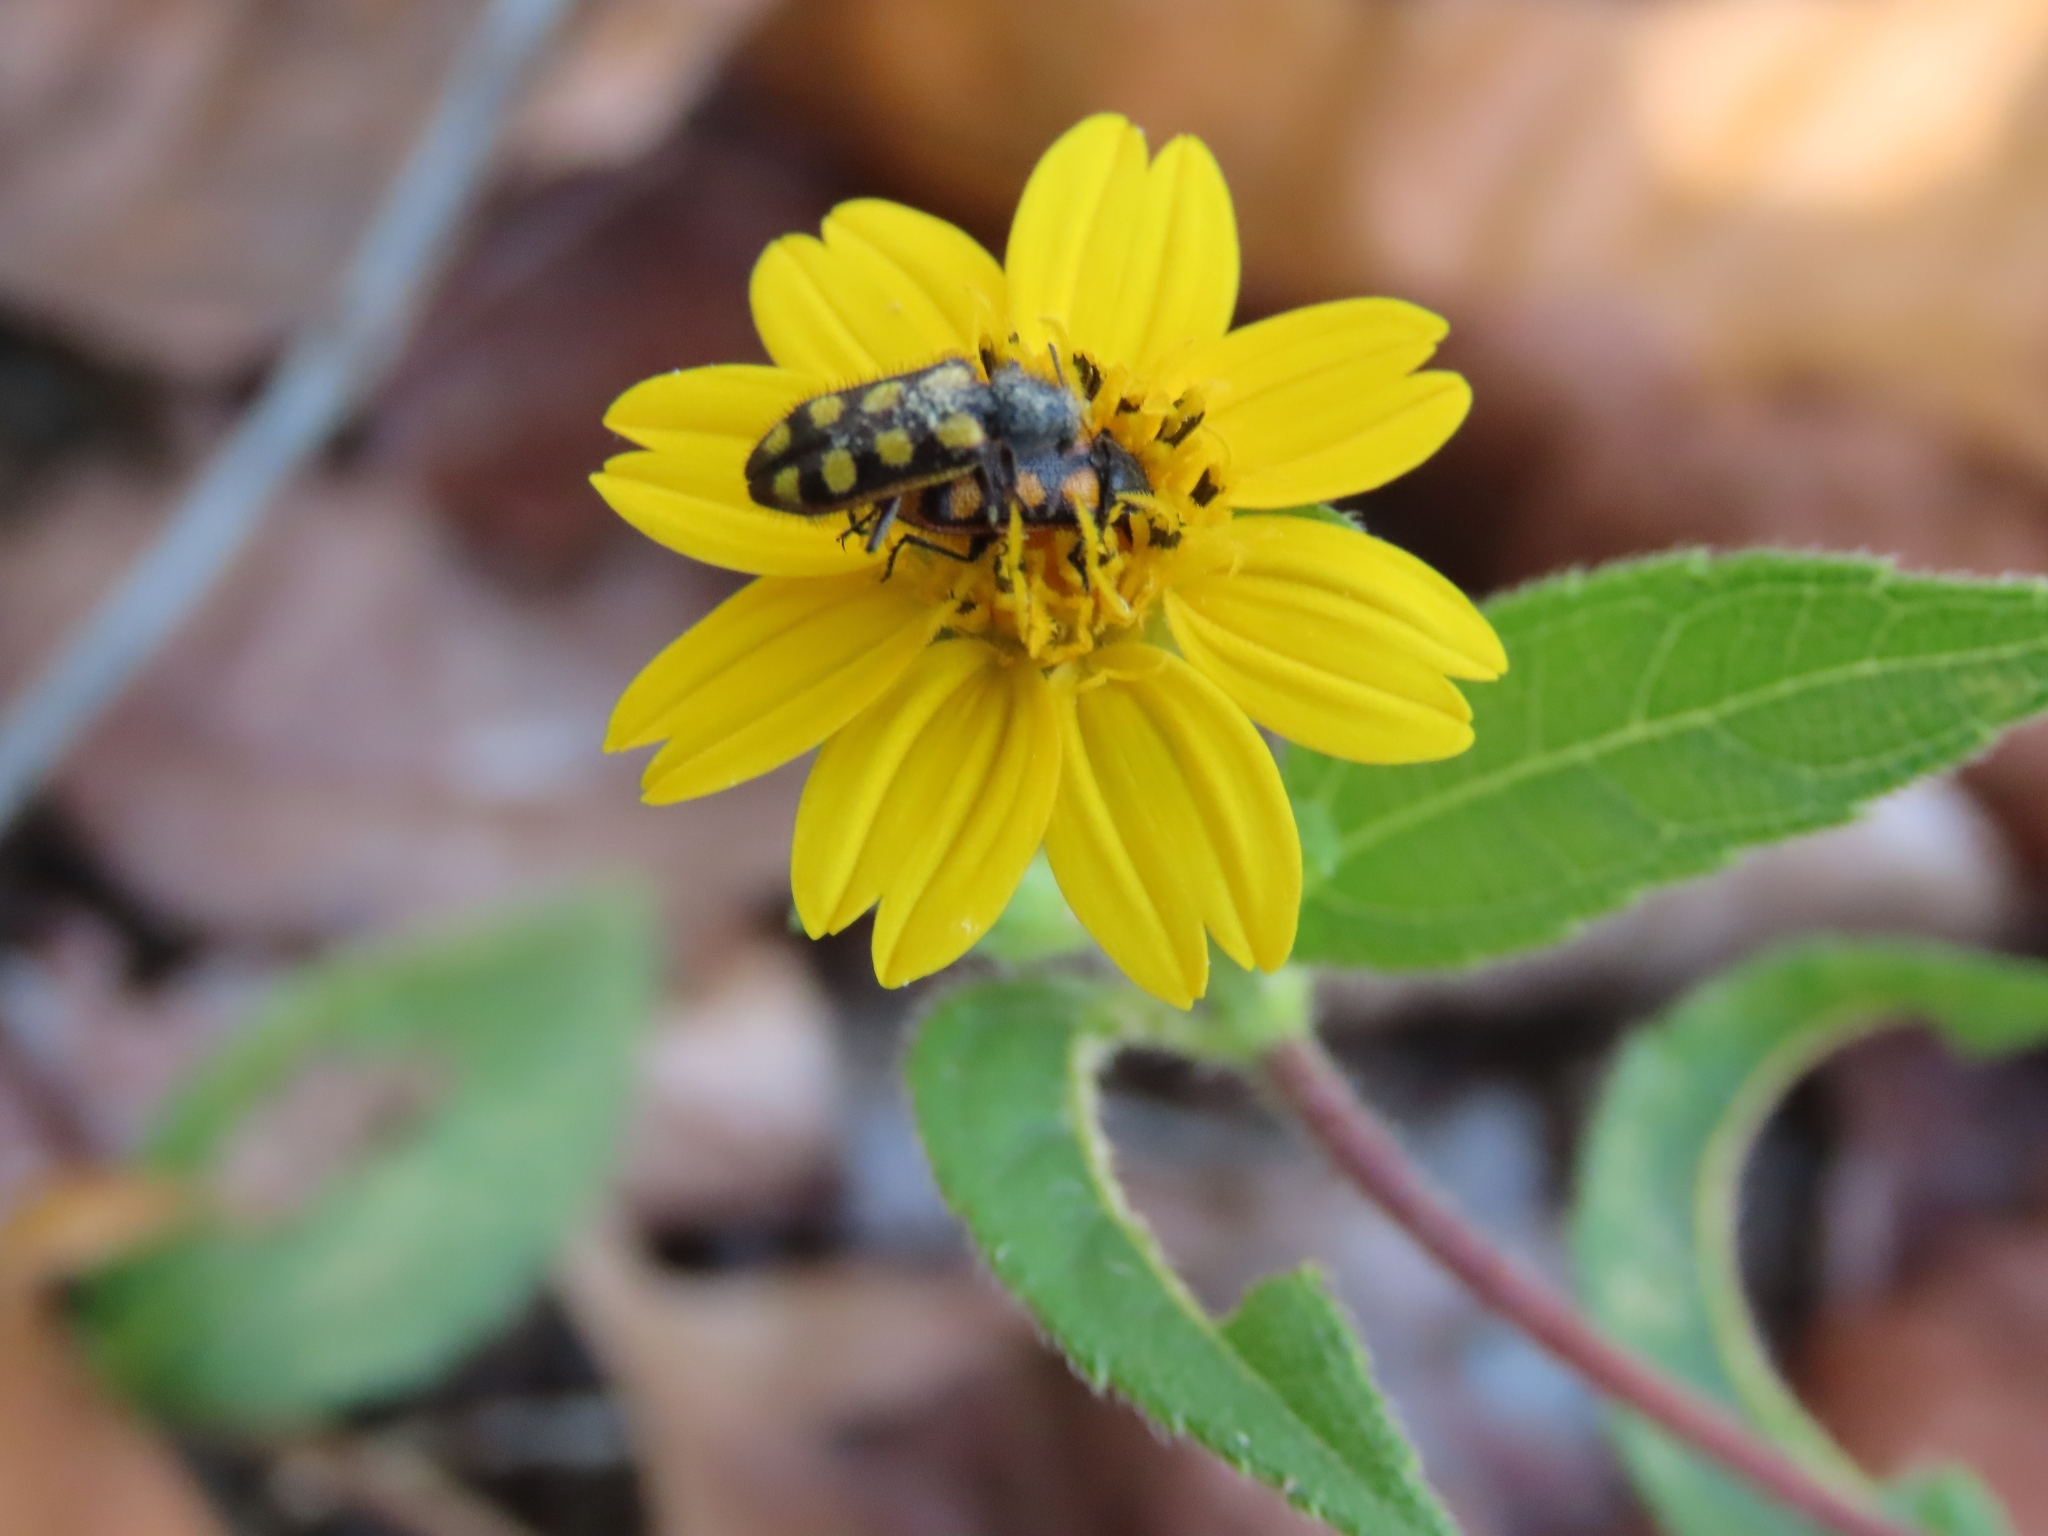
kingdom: Animalia
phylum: Arthropoda
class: Insecta
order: Coleoptera
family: Melyridae
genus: Astylus
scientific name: Astylus
